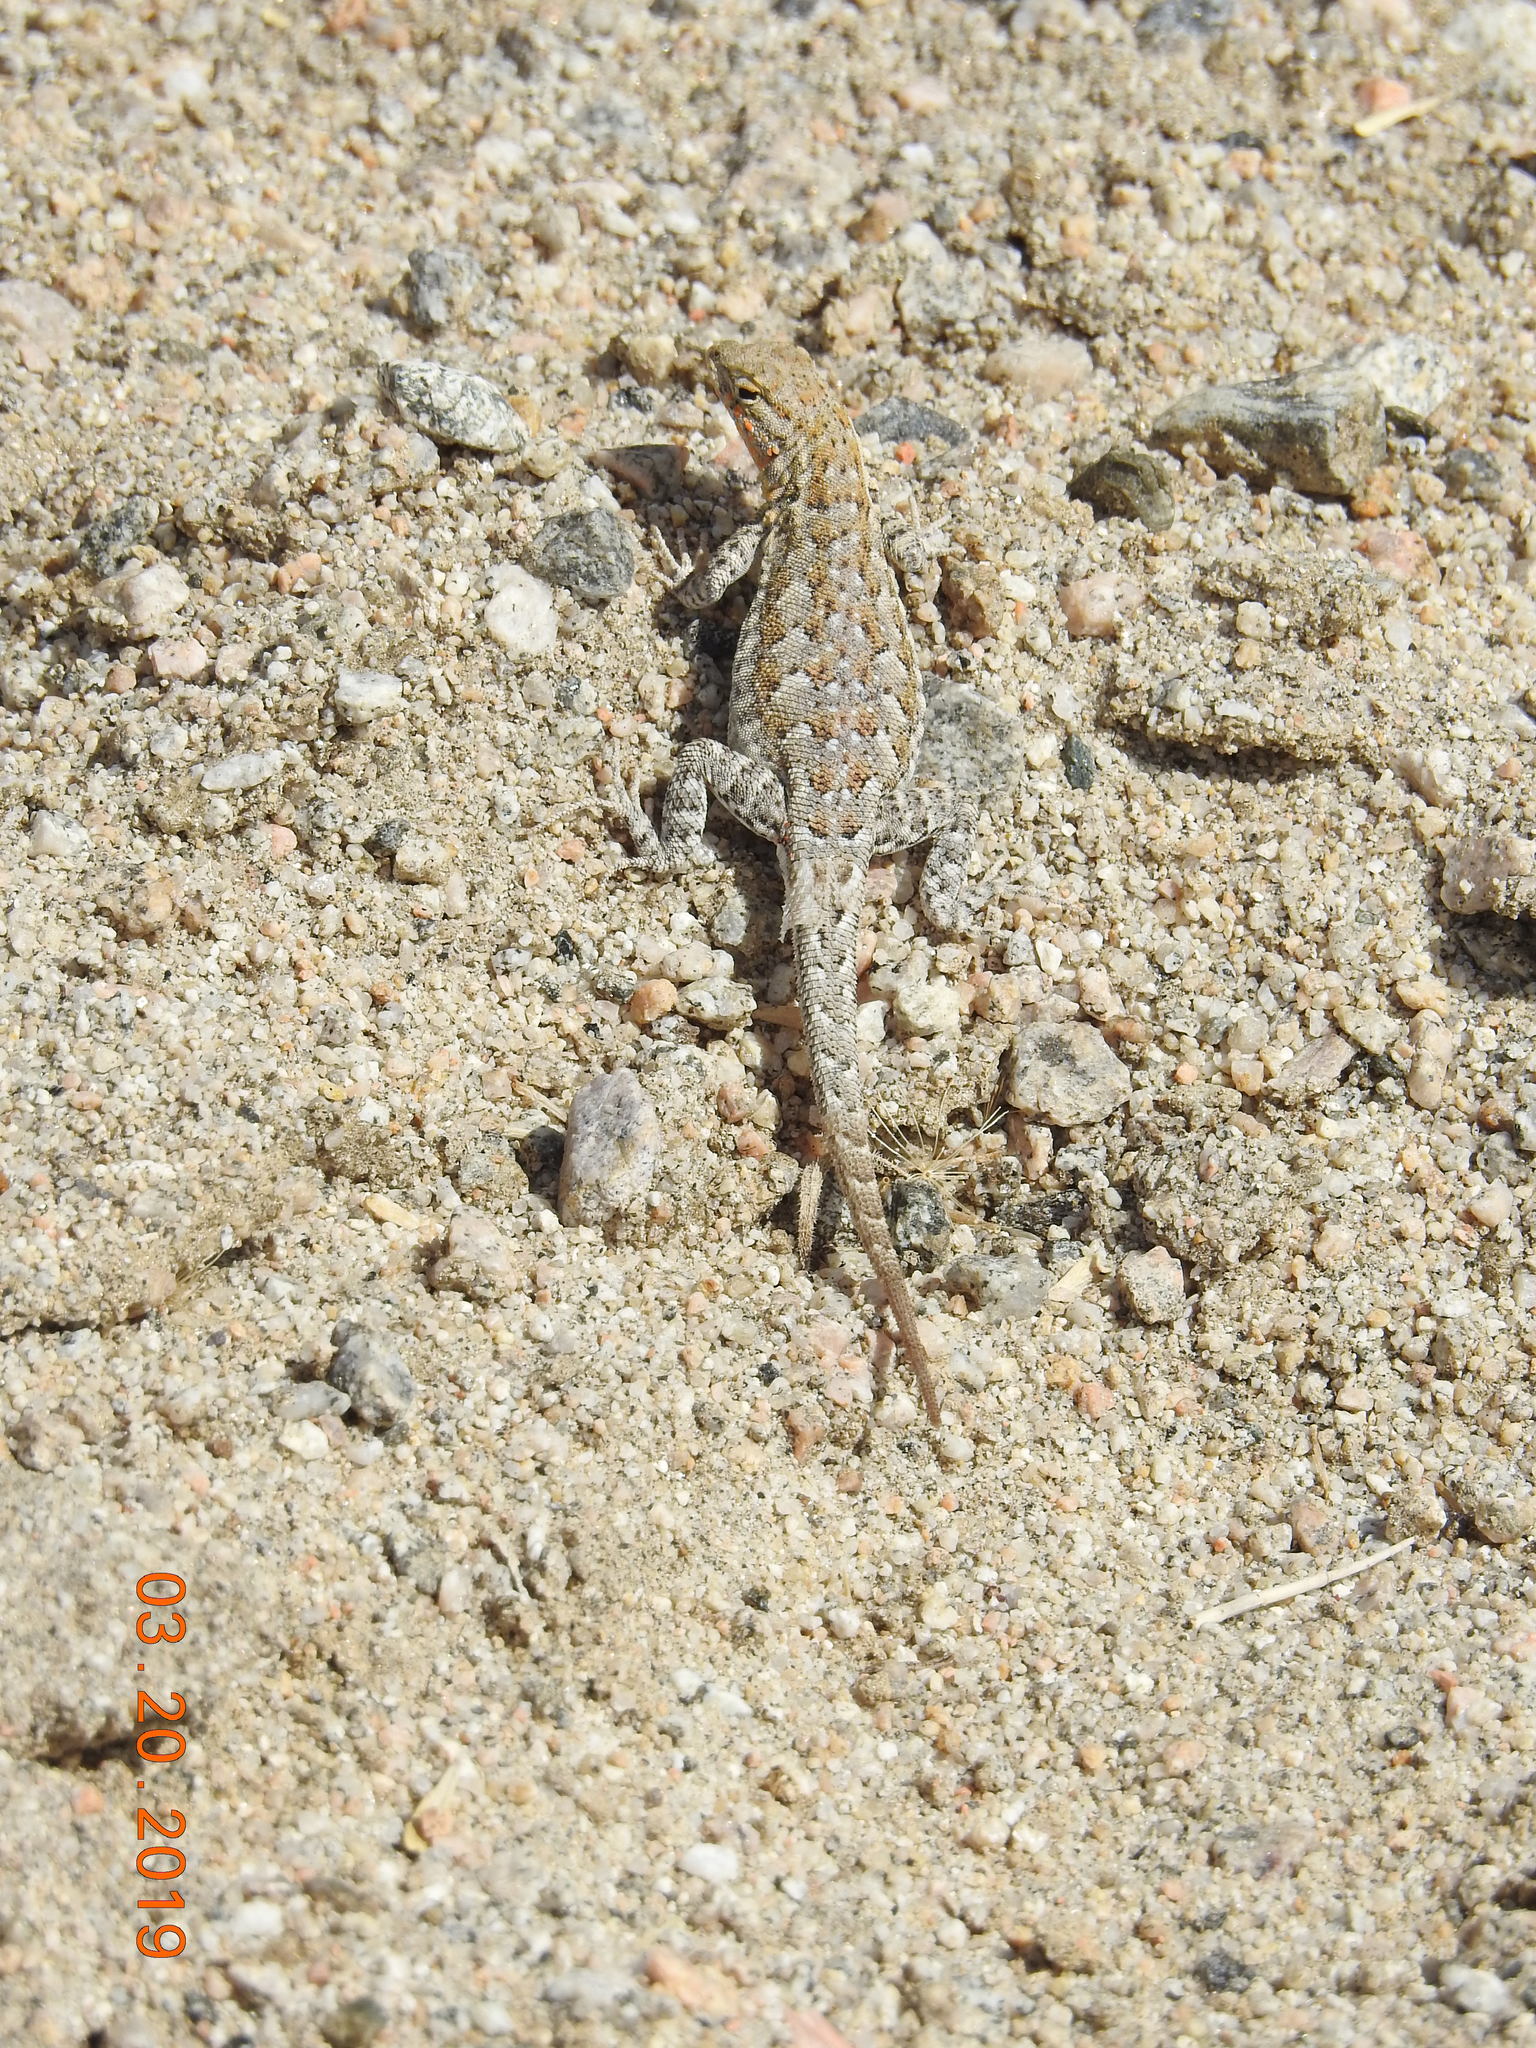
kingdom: Animalia
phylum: Chordata
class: Squamata
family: Phrynosomatidae
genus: Uta
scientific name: Uta stansburiana
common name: Side-blotched lizard
